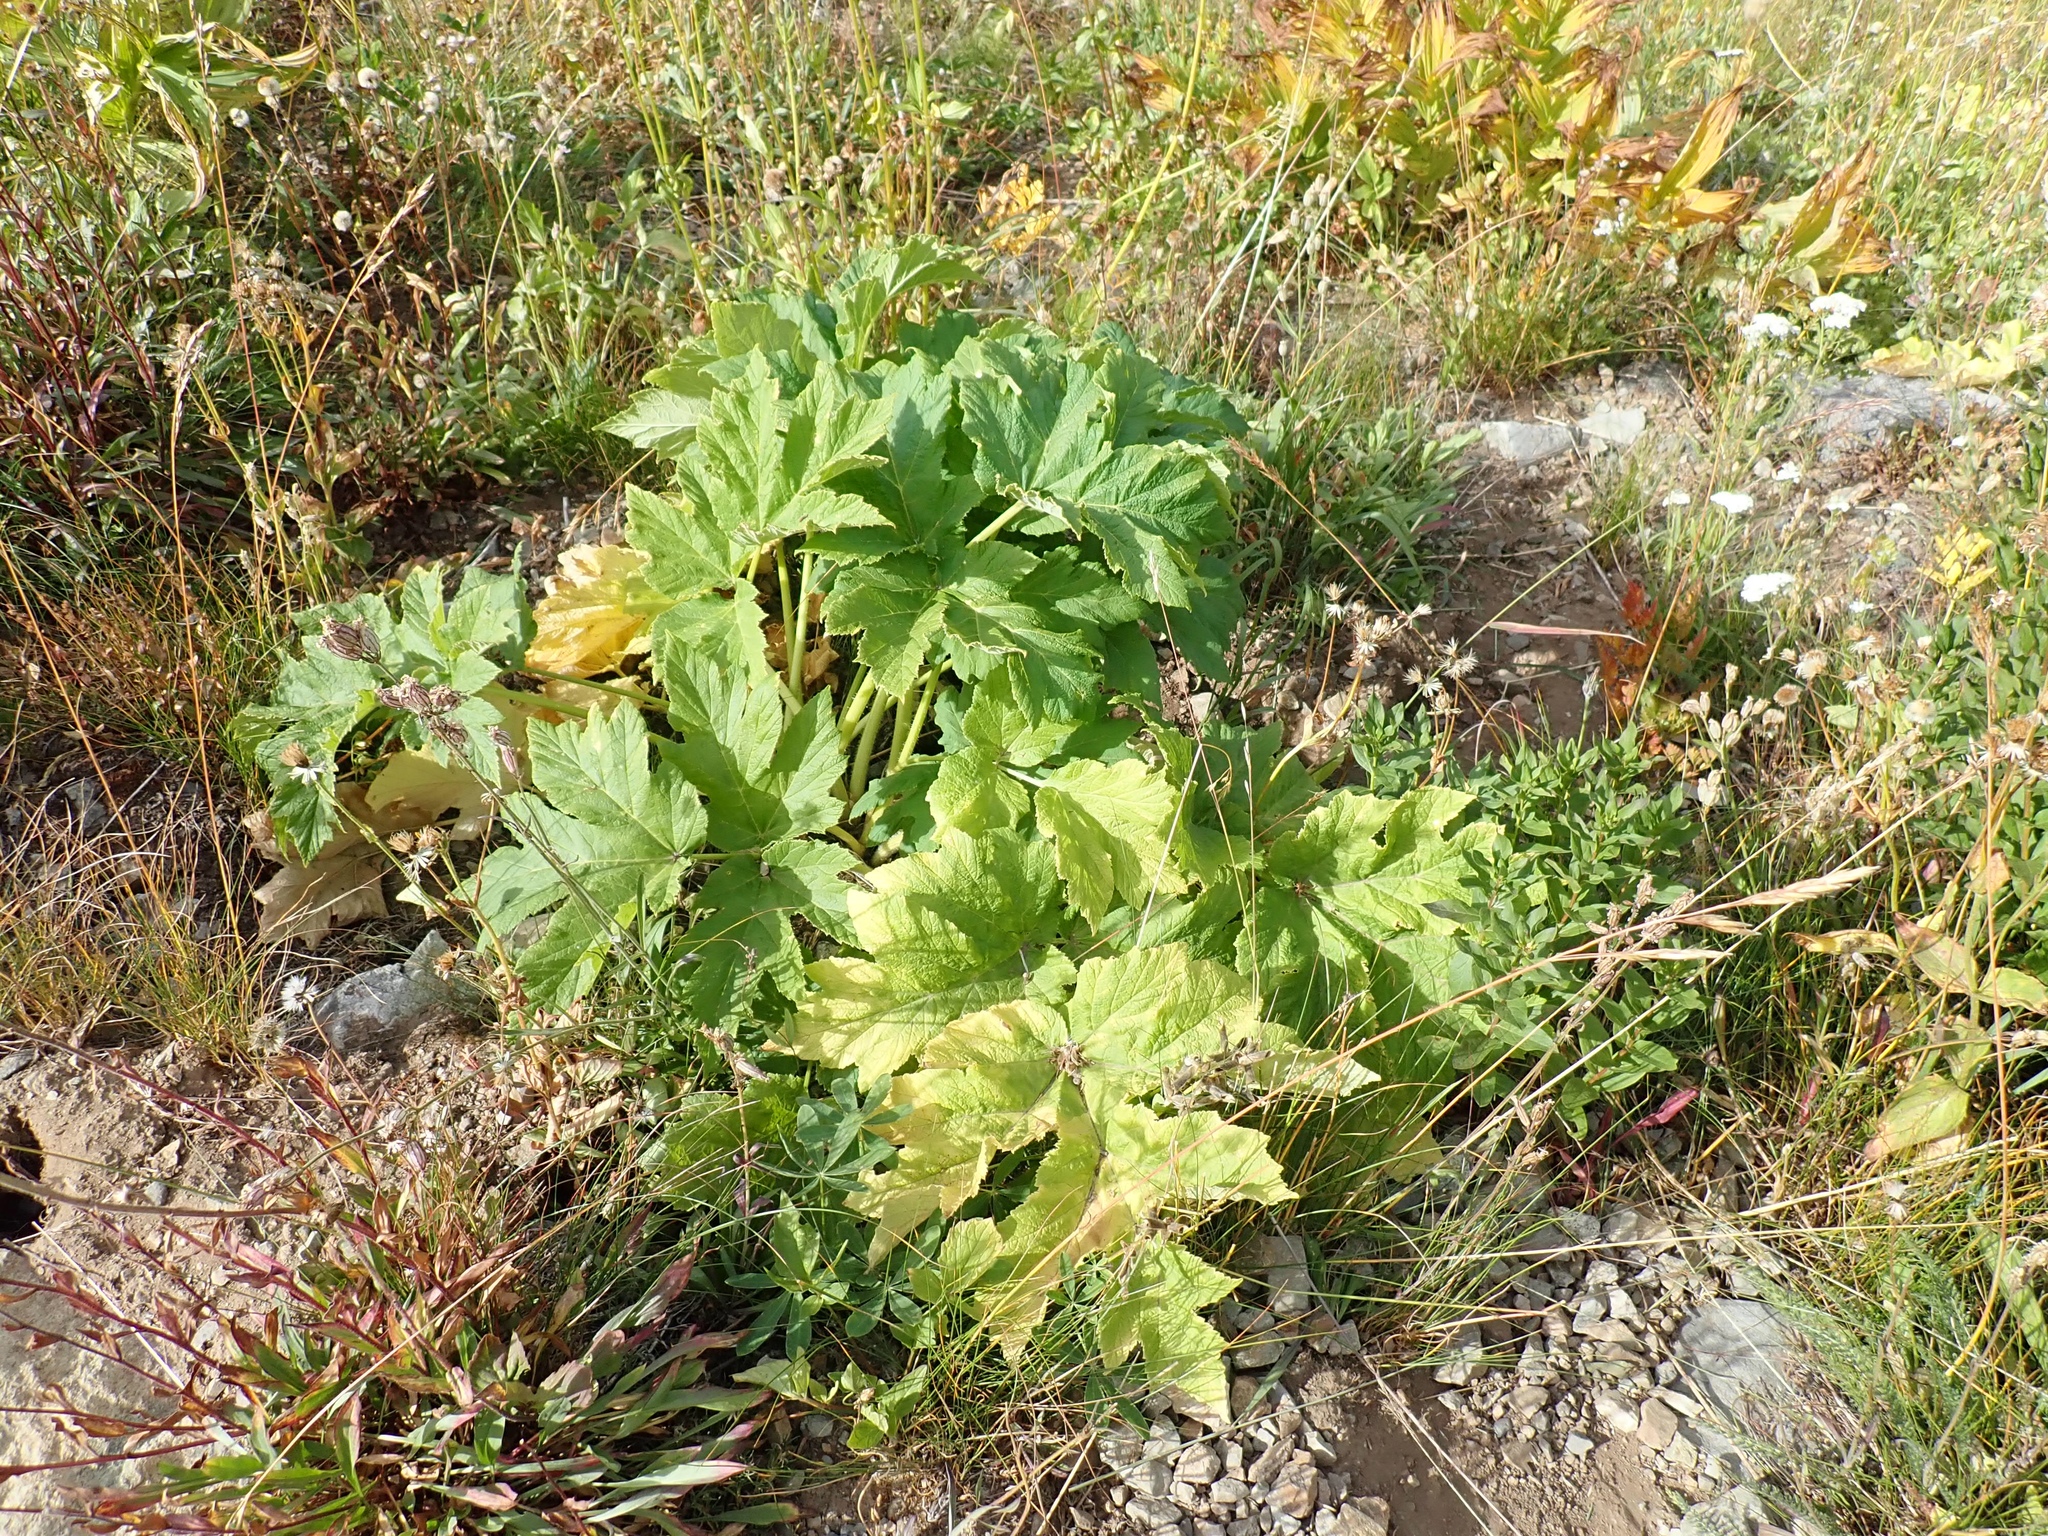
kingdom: Plantae
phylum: Tracheophyta
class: Magnoliopsida
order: Apiales
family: Apiaceae
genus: Heracleum
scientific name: Heracleum maximum
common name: American cow parsnip
